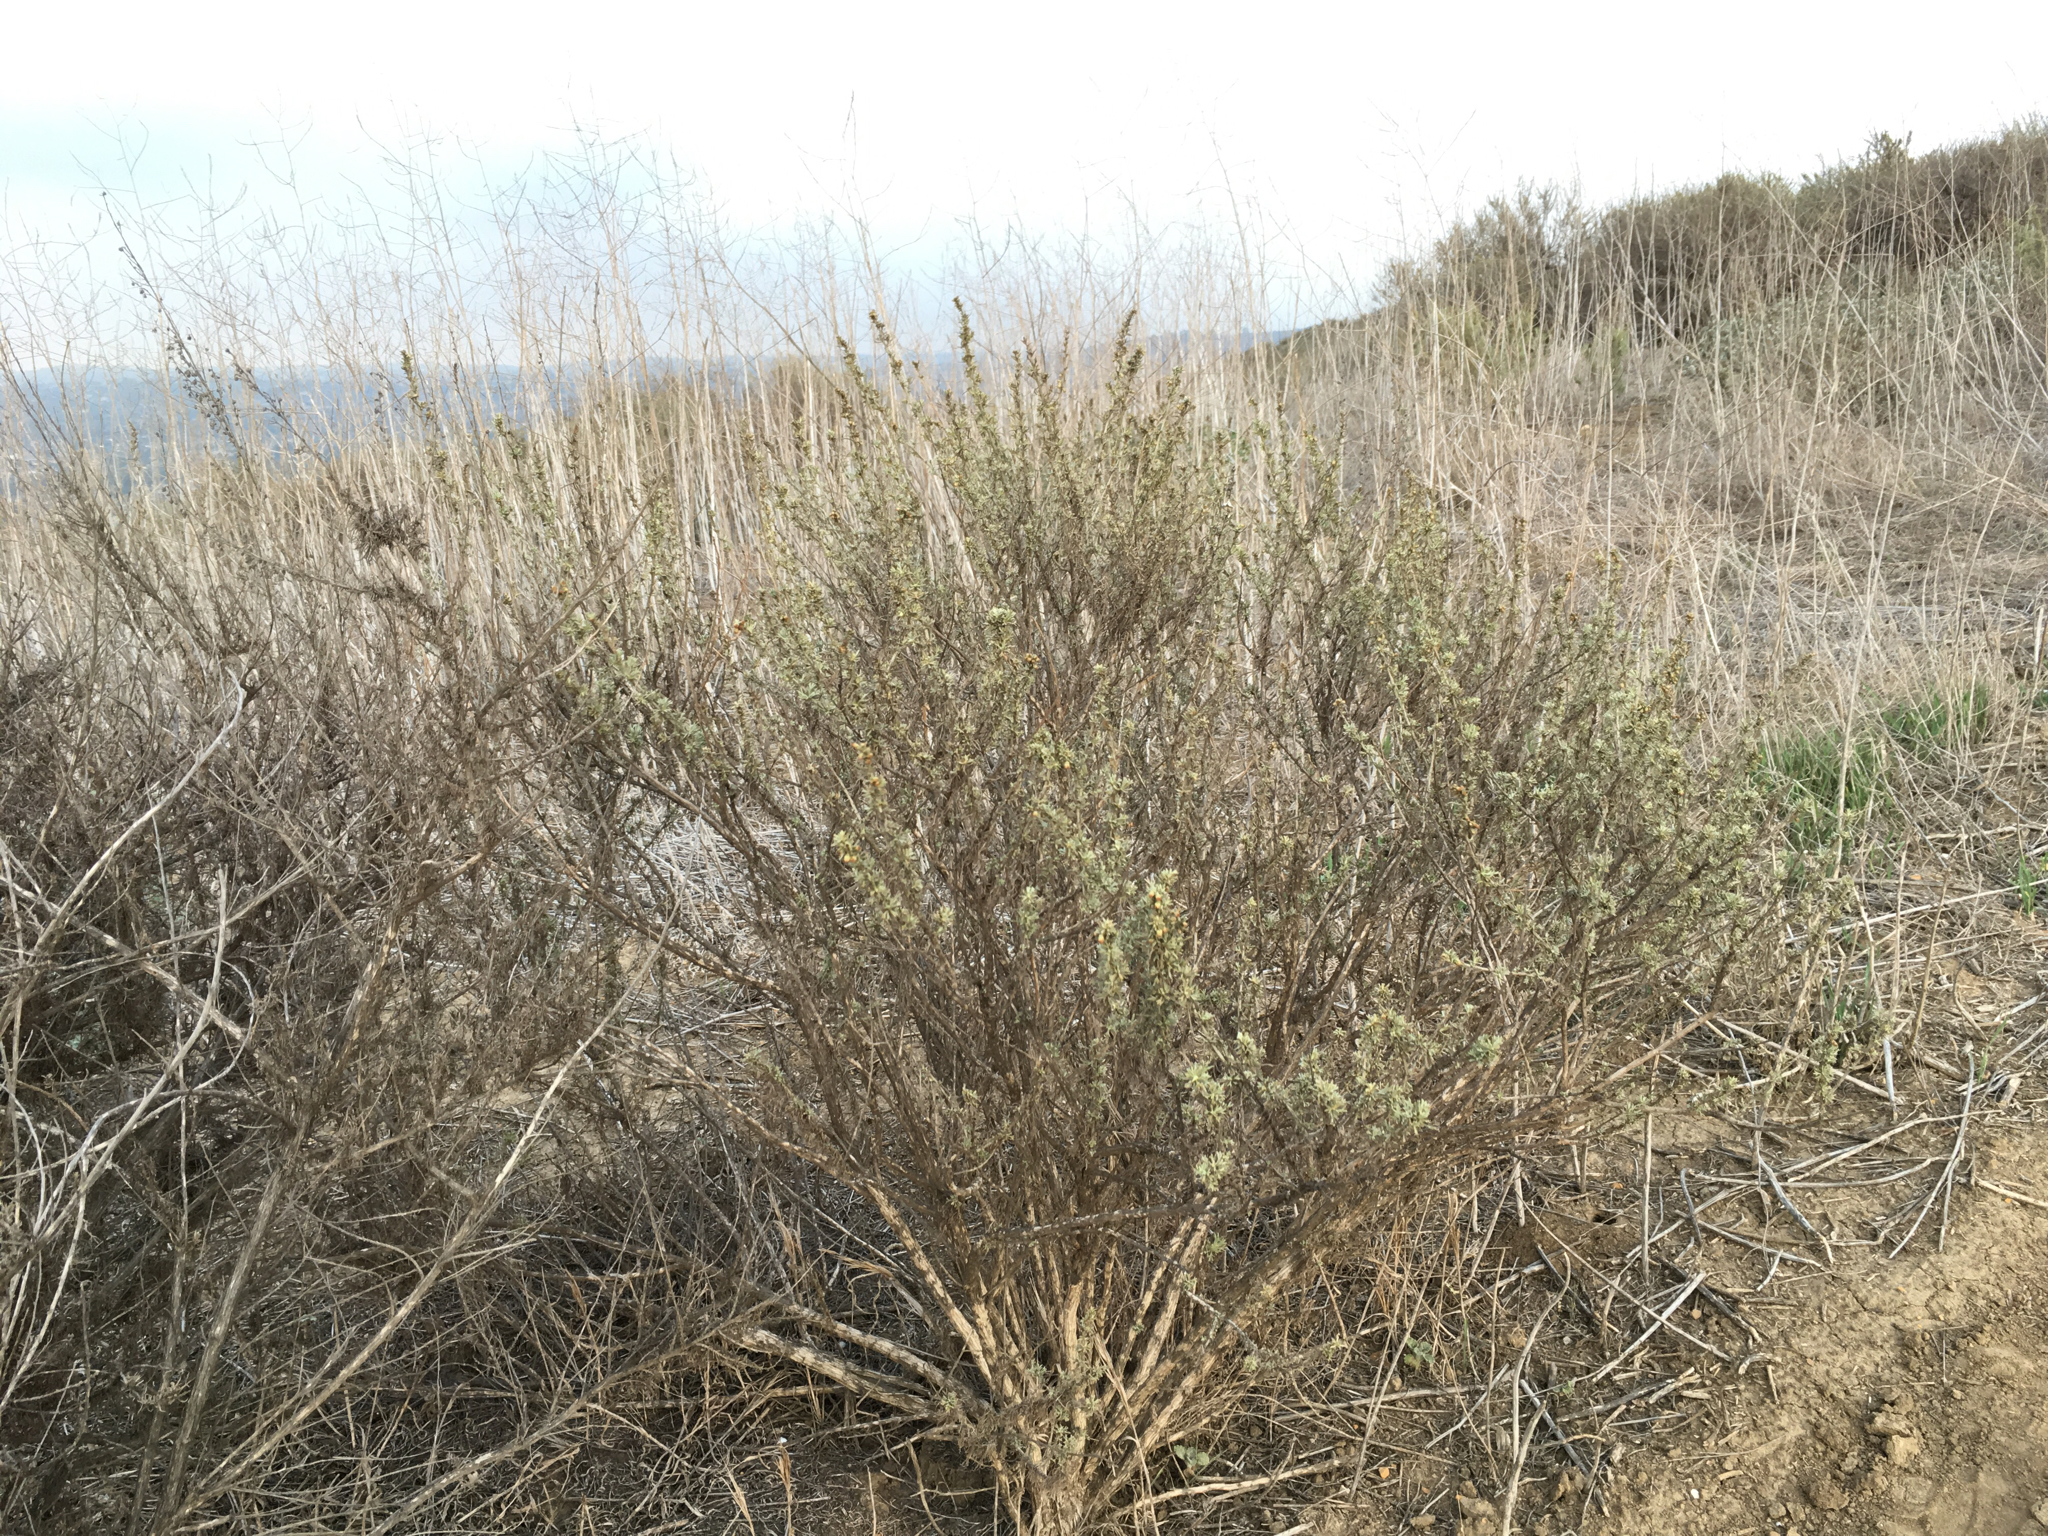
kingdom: Plantae
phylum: Tracheophyta
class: Magnoliopsida
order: Asterales
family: Asteraceae
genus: Artemisia
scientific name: Artemisia californica
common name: California sagebrush
